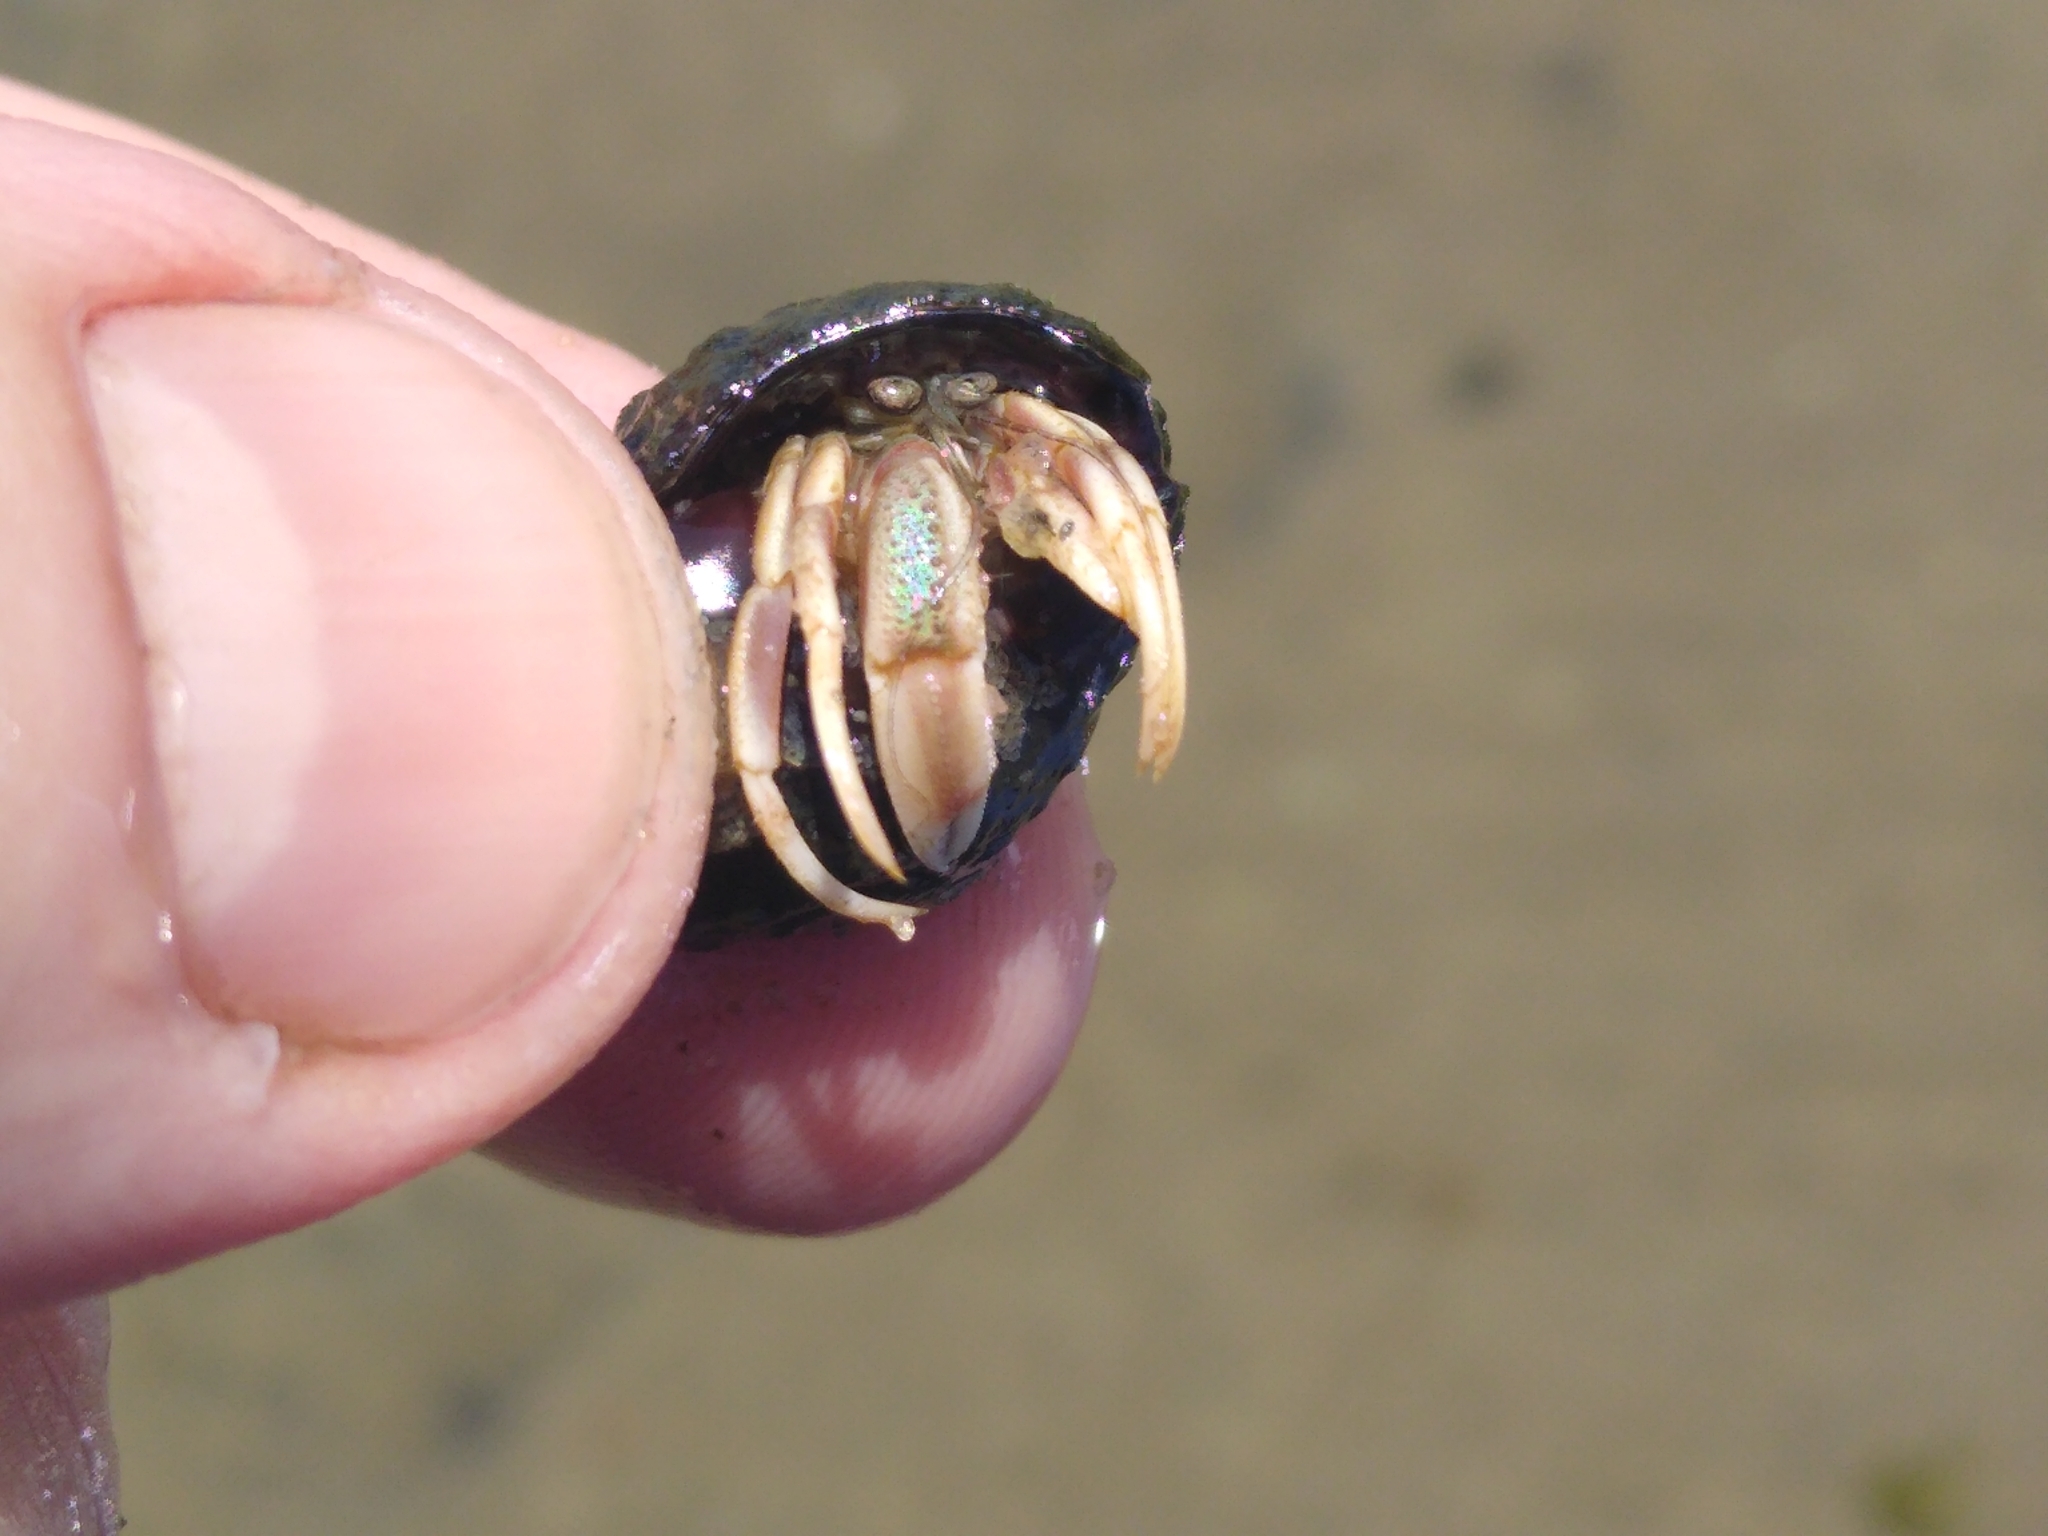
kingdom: Animalia
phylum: Arthropoda
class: Malacostraca
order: Decapoda
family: Paguridae
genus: Pagurus
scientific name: Pagurus longicarpus
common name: Long-armed hermit crab
